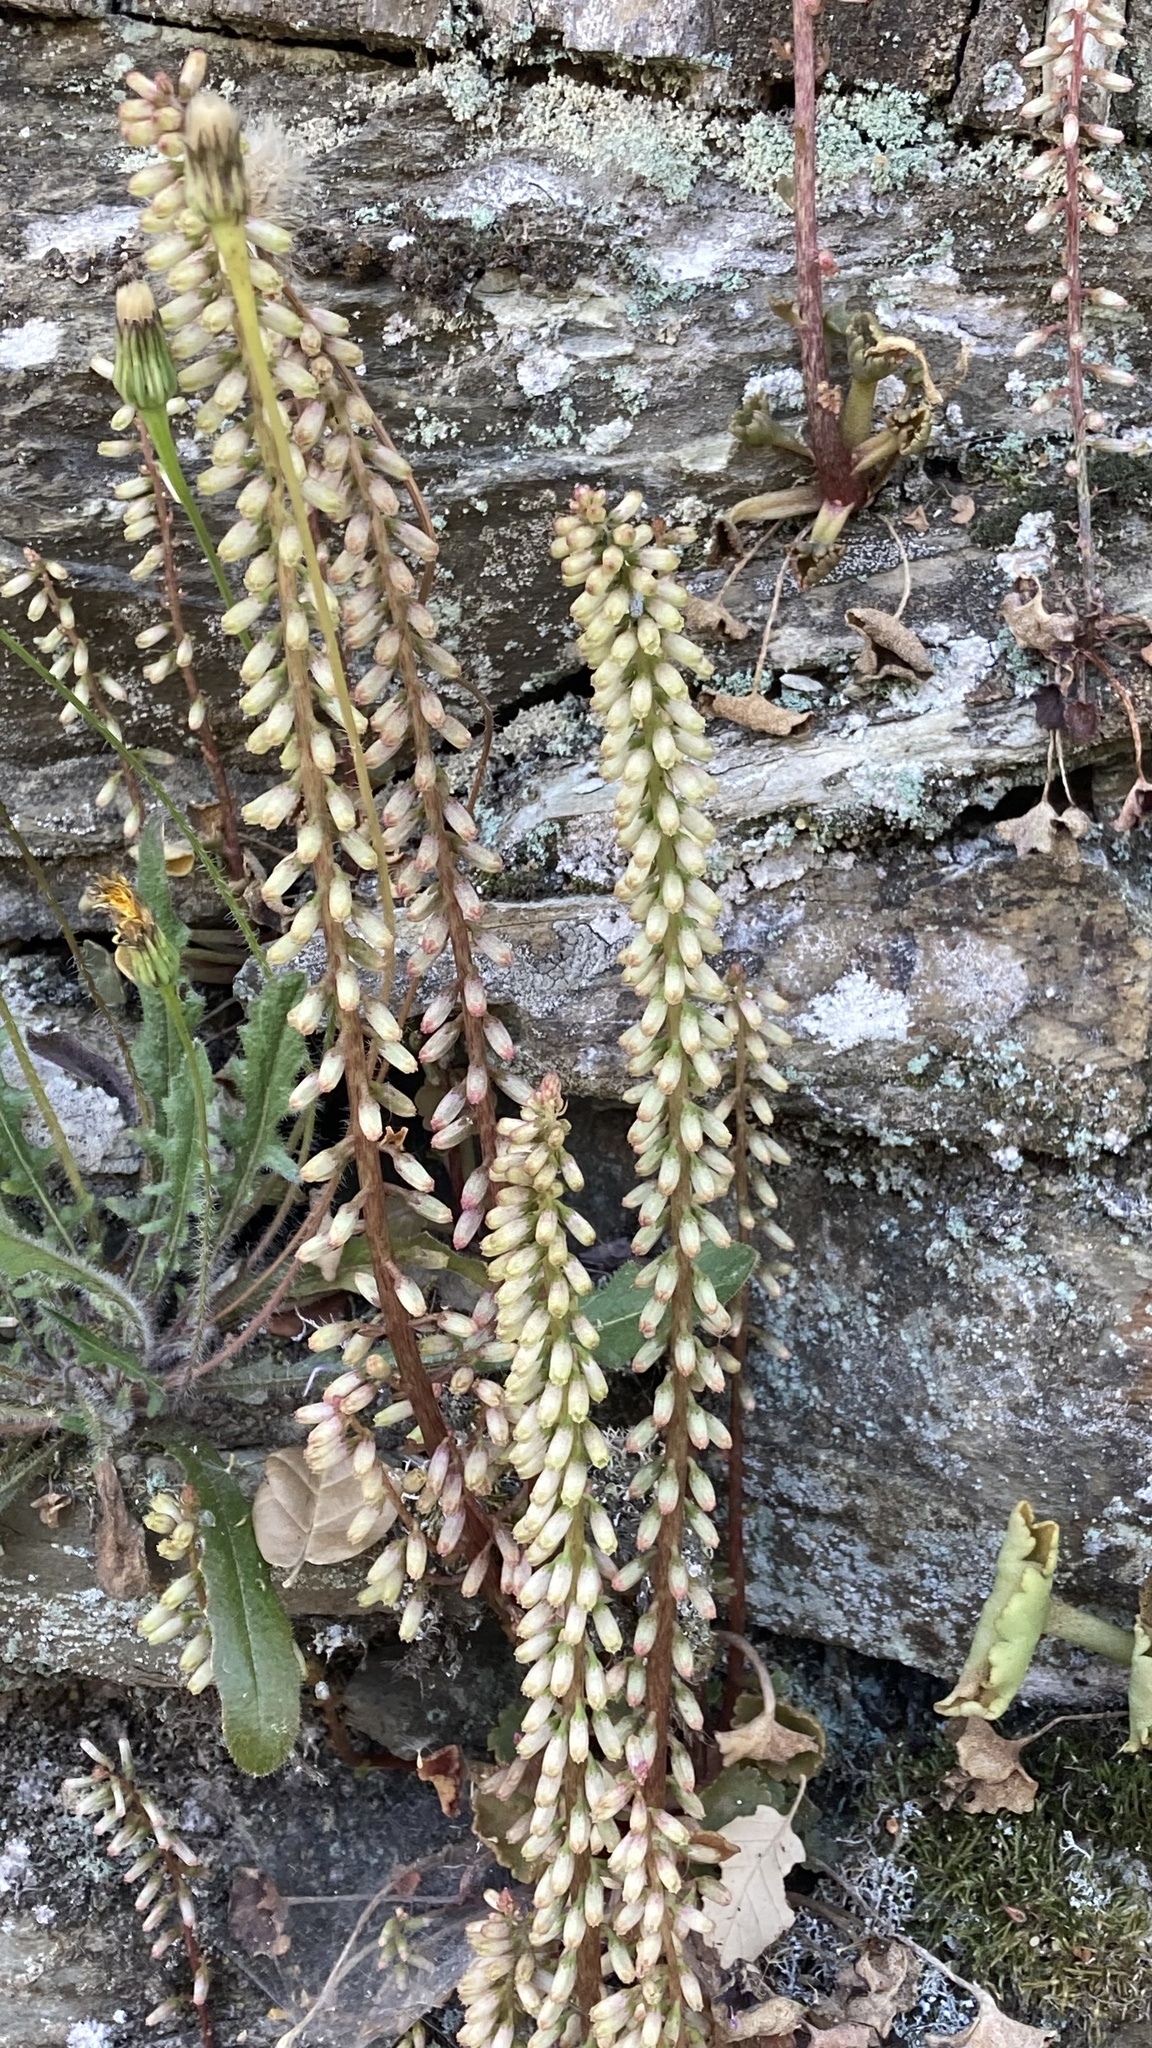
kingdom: Plantae
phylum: Tracheophyta
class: Magnoliopsida
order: Saxifragales
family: Crassulaceae
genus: Umbilicus
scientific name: Umbilicus rupestris
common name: Navelwort
